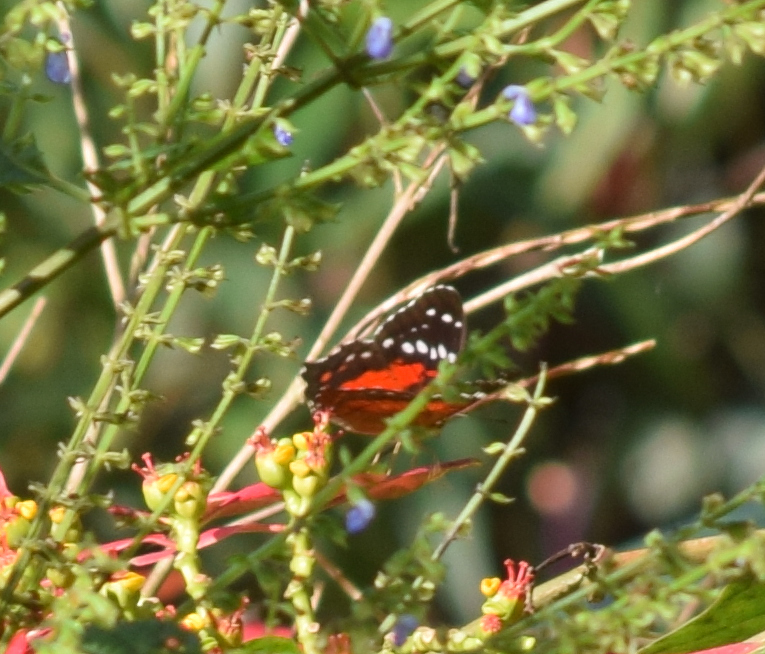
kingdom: Animalia
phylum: Arthropoda
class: Insecta
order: Lepidoptera
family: Nymphalidae
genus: Anartia
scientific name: Anartia amathea
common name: Red peacock
